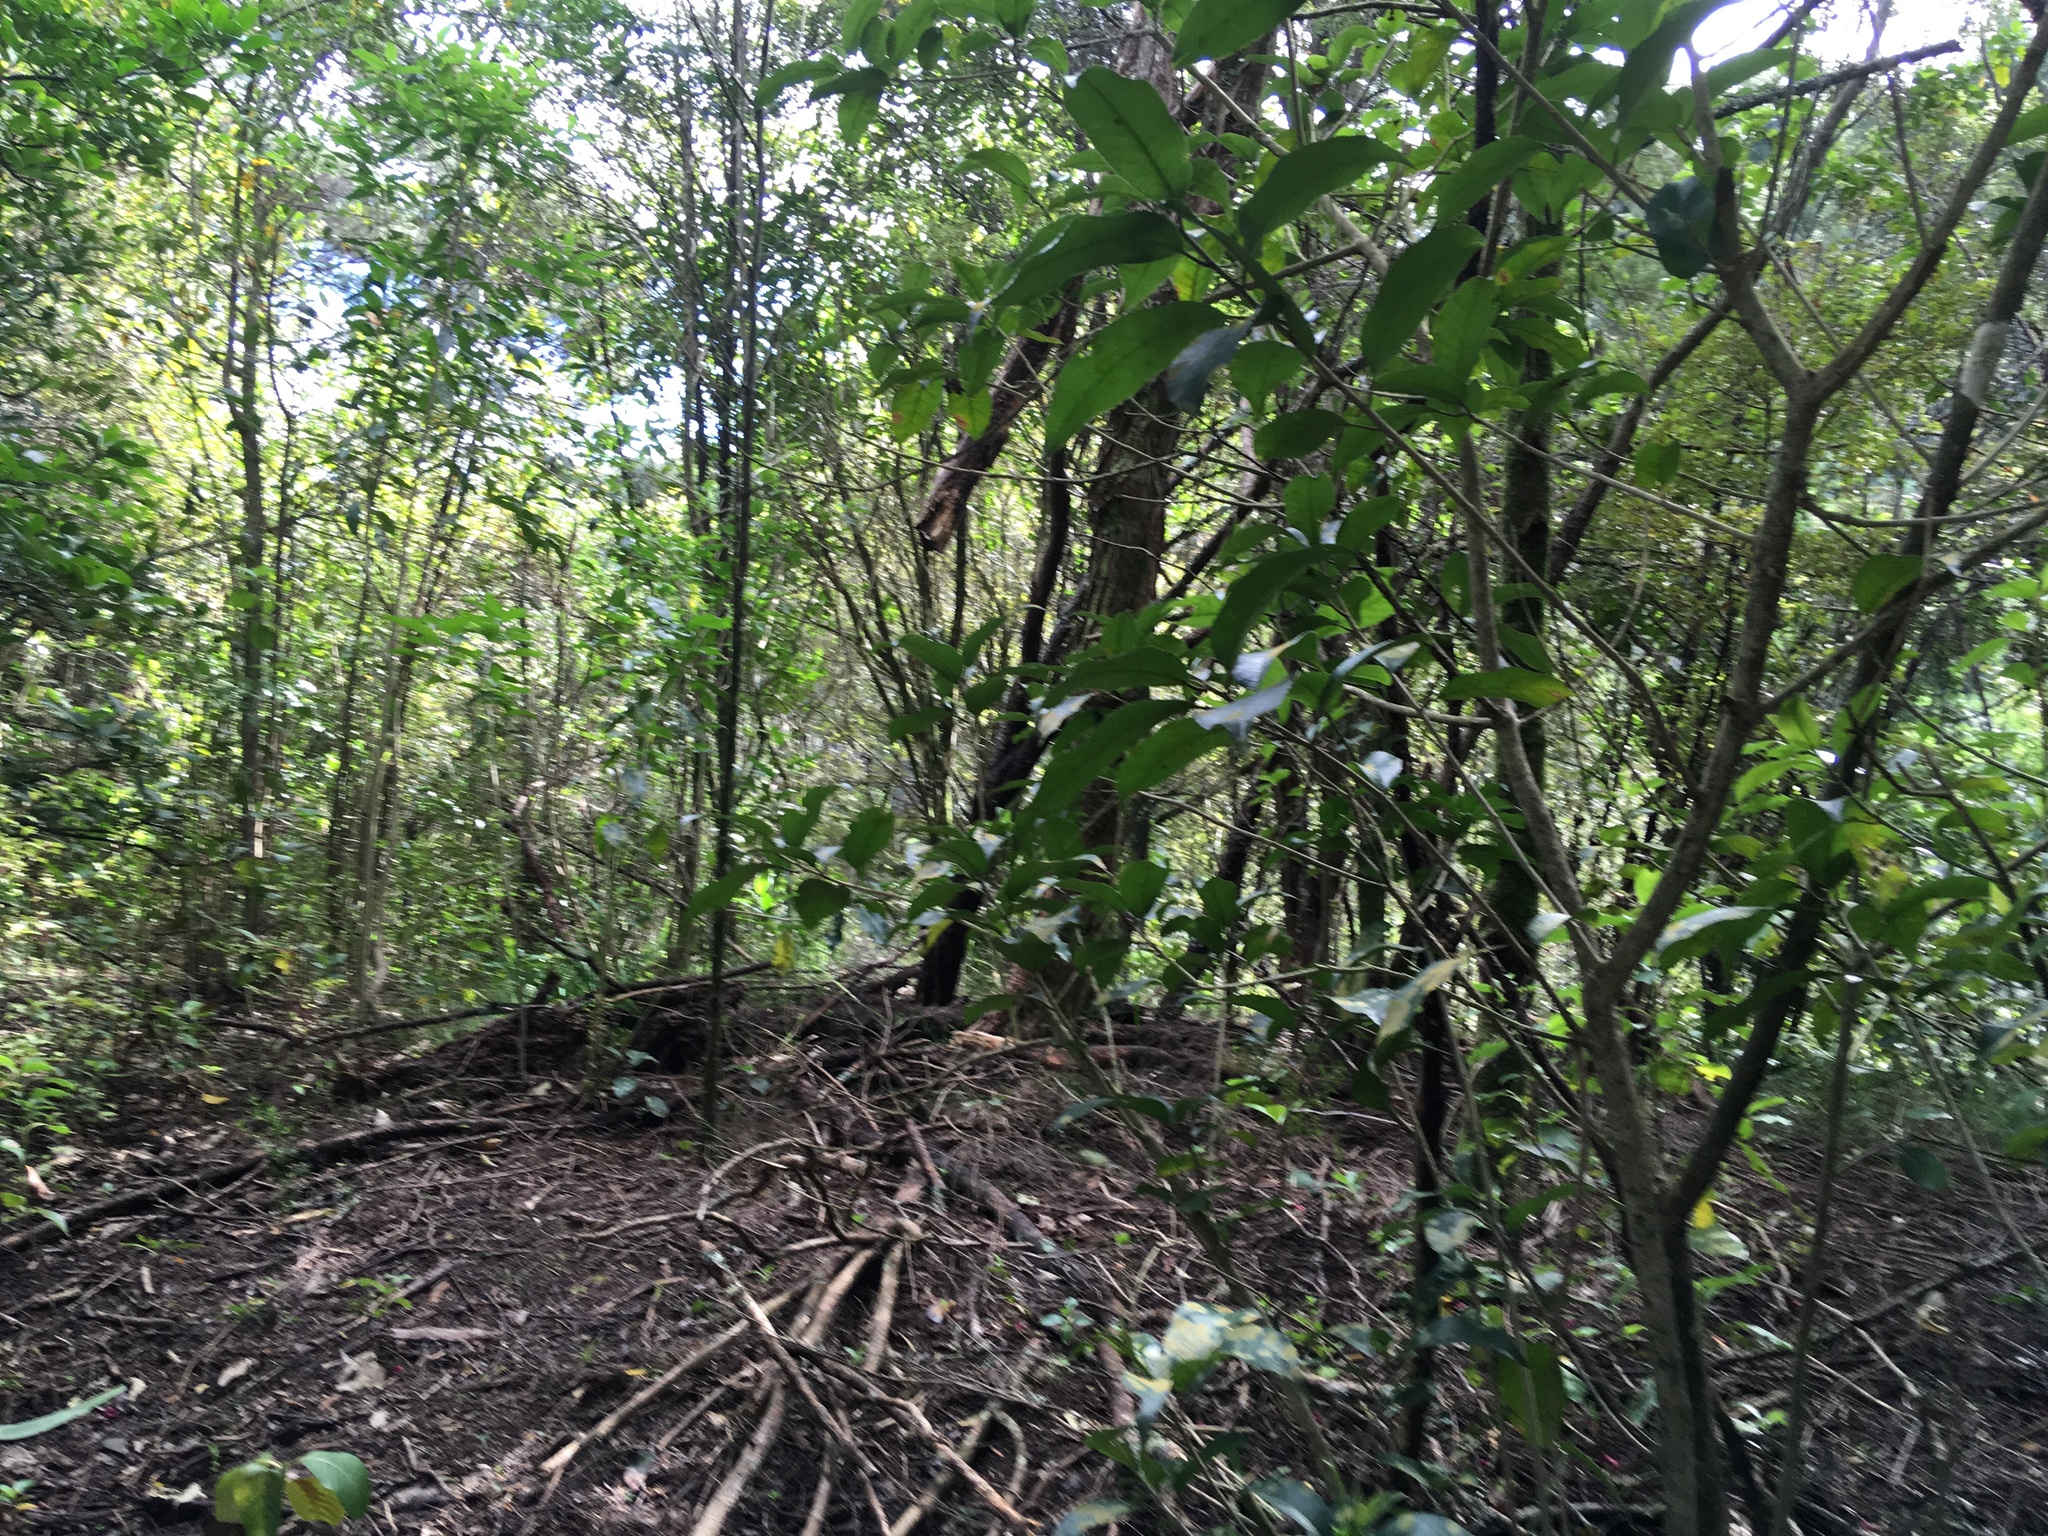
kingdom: Plantae
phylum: Tracheophyta
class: Magnoliopsida
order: Malpighiales
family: Violaceae
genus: Melicytus
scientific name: Melicytus ramiflorus
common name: Mahoe
